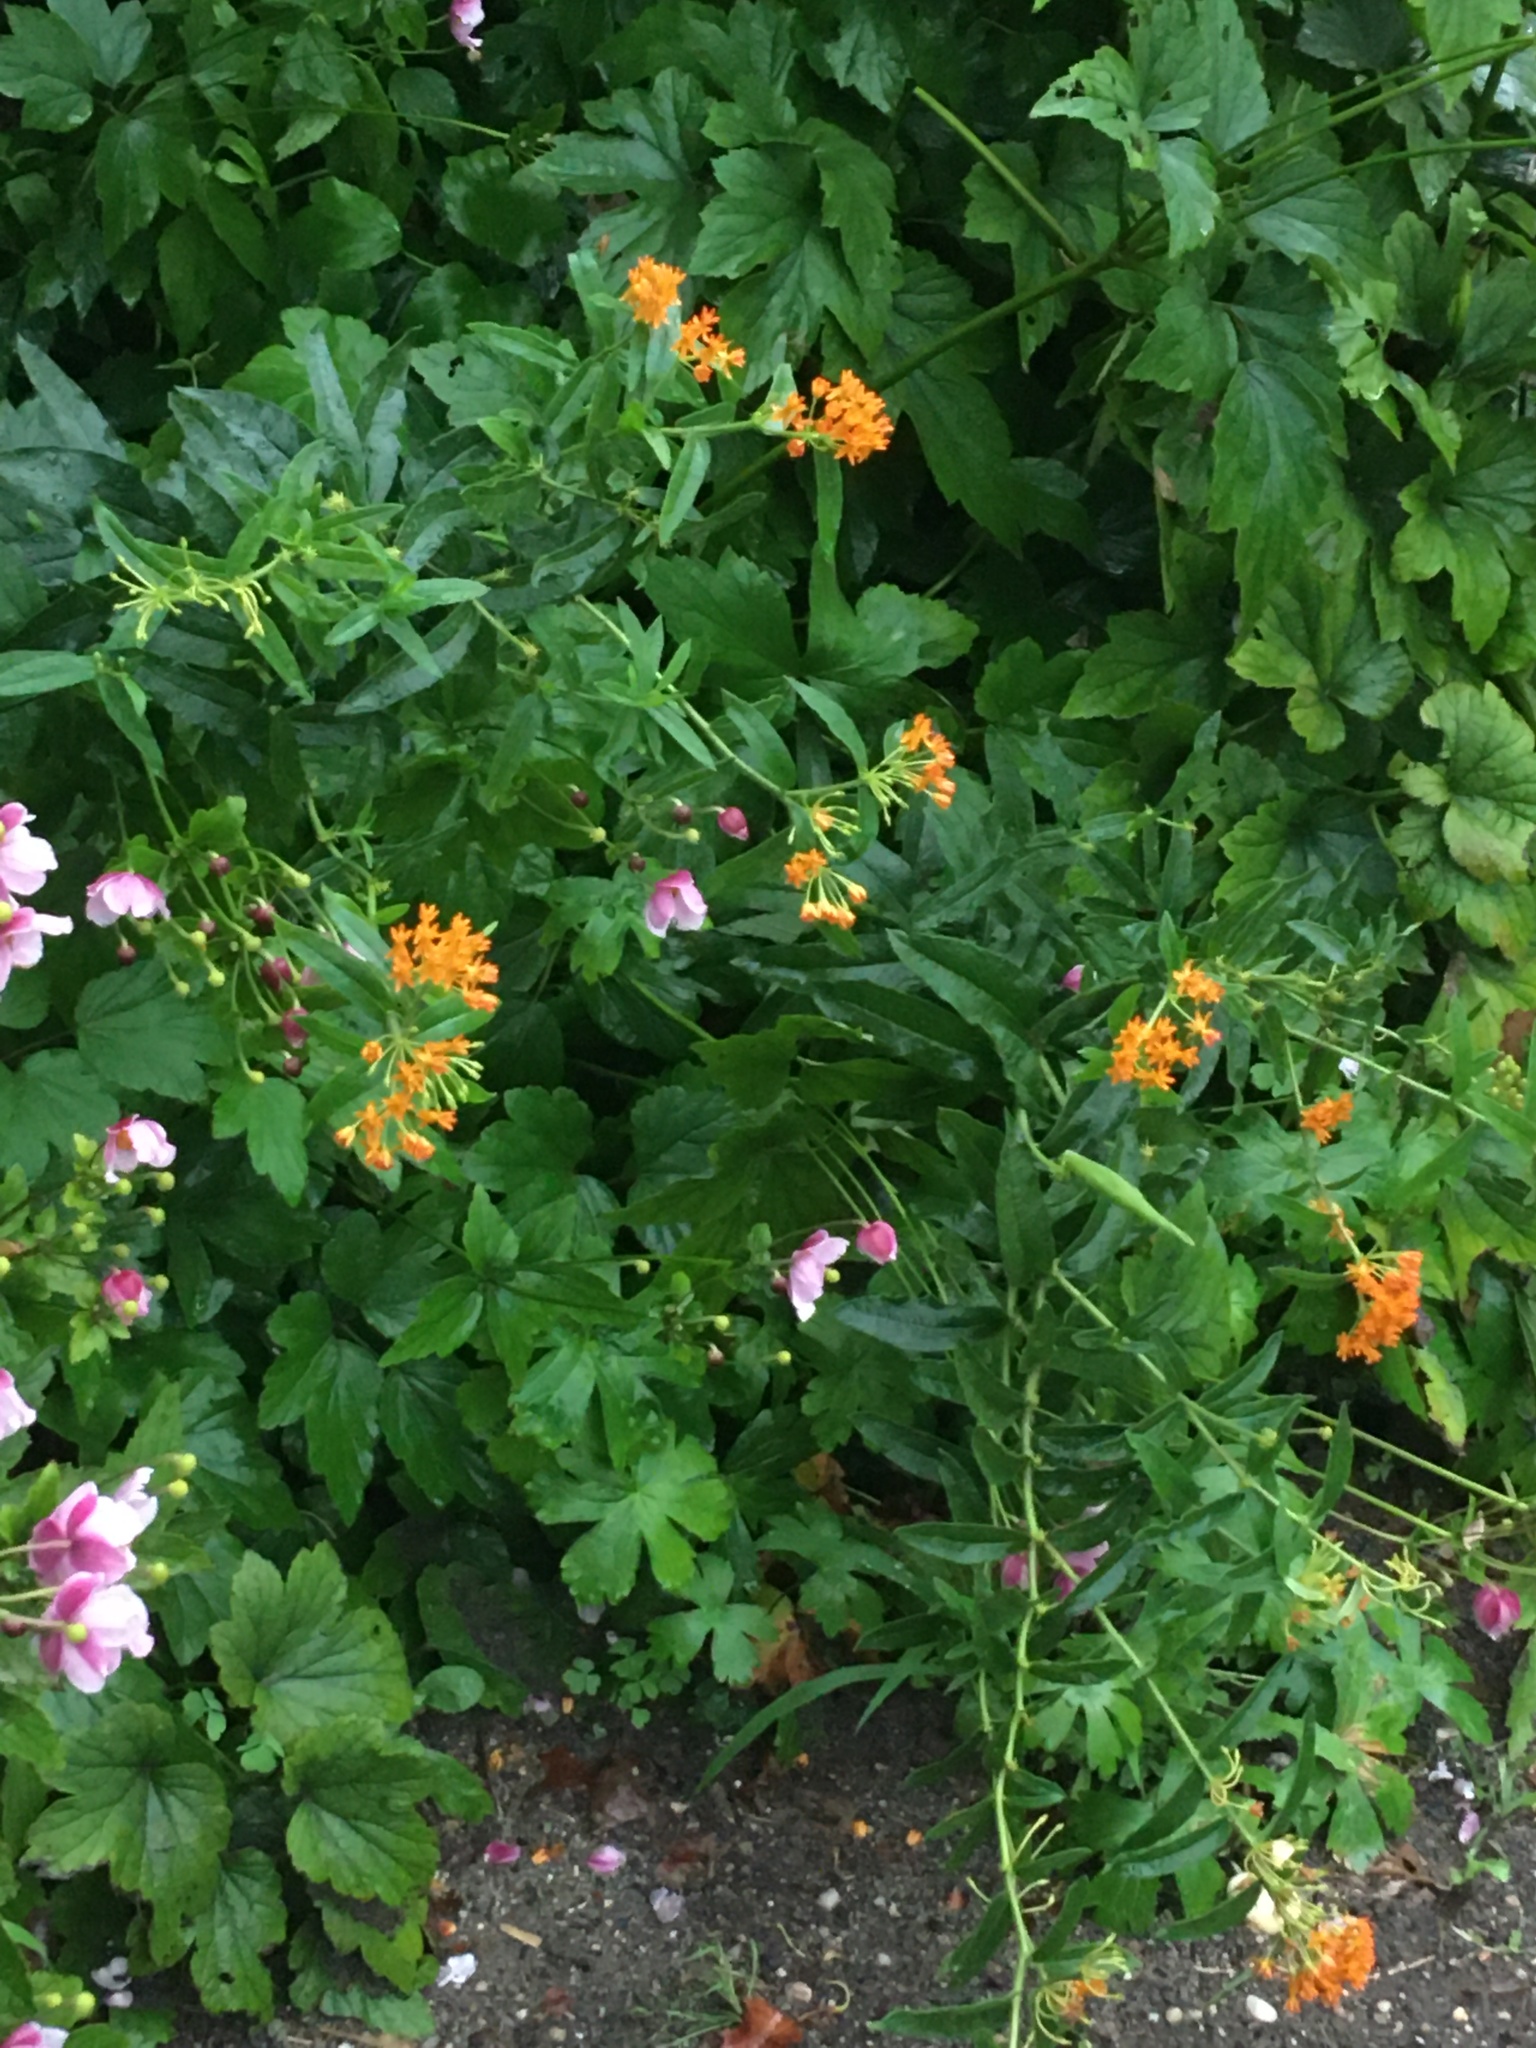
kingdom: Plantae
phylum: Tracheophyta
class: Magnoliopsida
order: Gentianales
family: Apocynaceae
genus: Asclepias
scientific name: Asclepias tuberosa
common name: Butterfly milkweed
